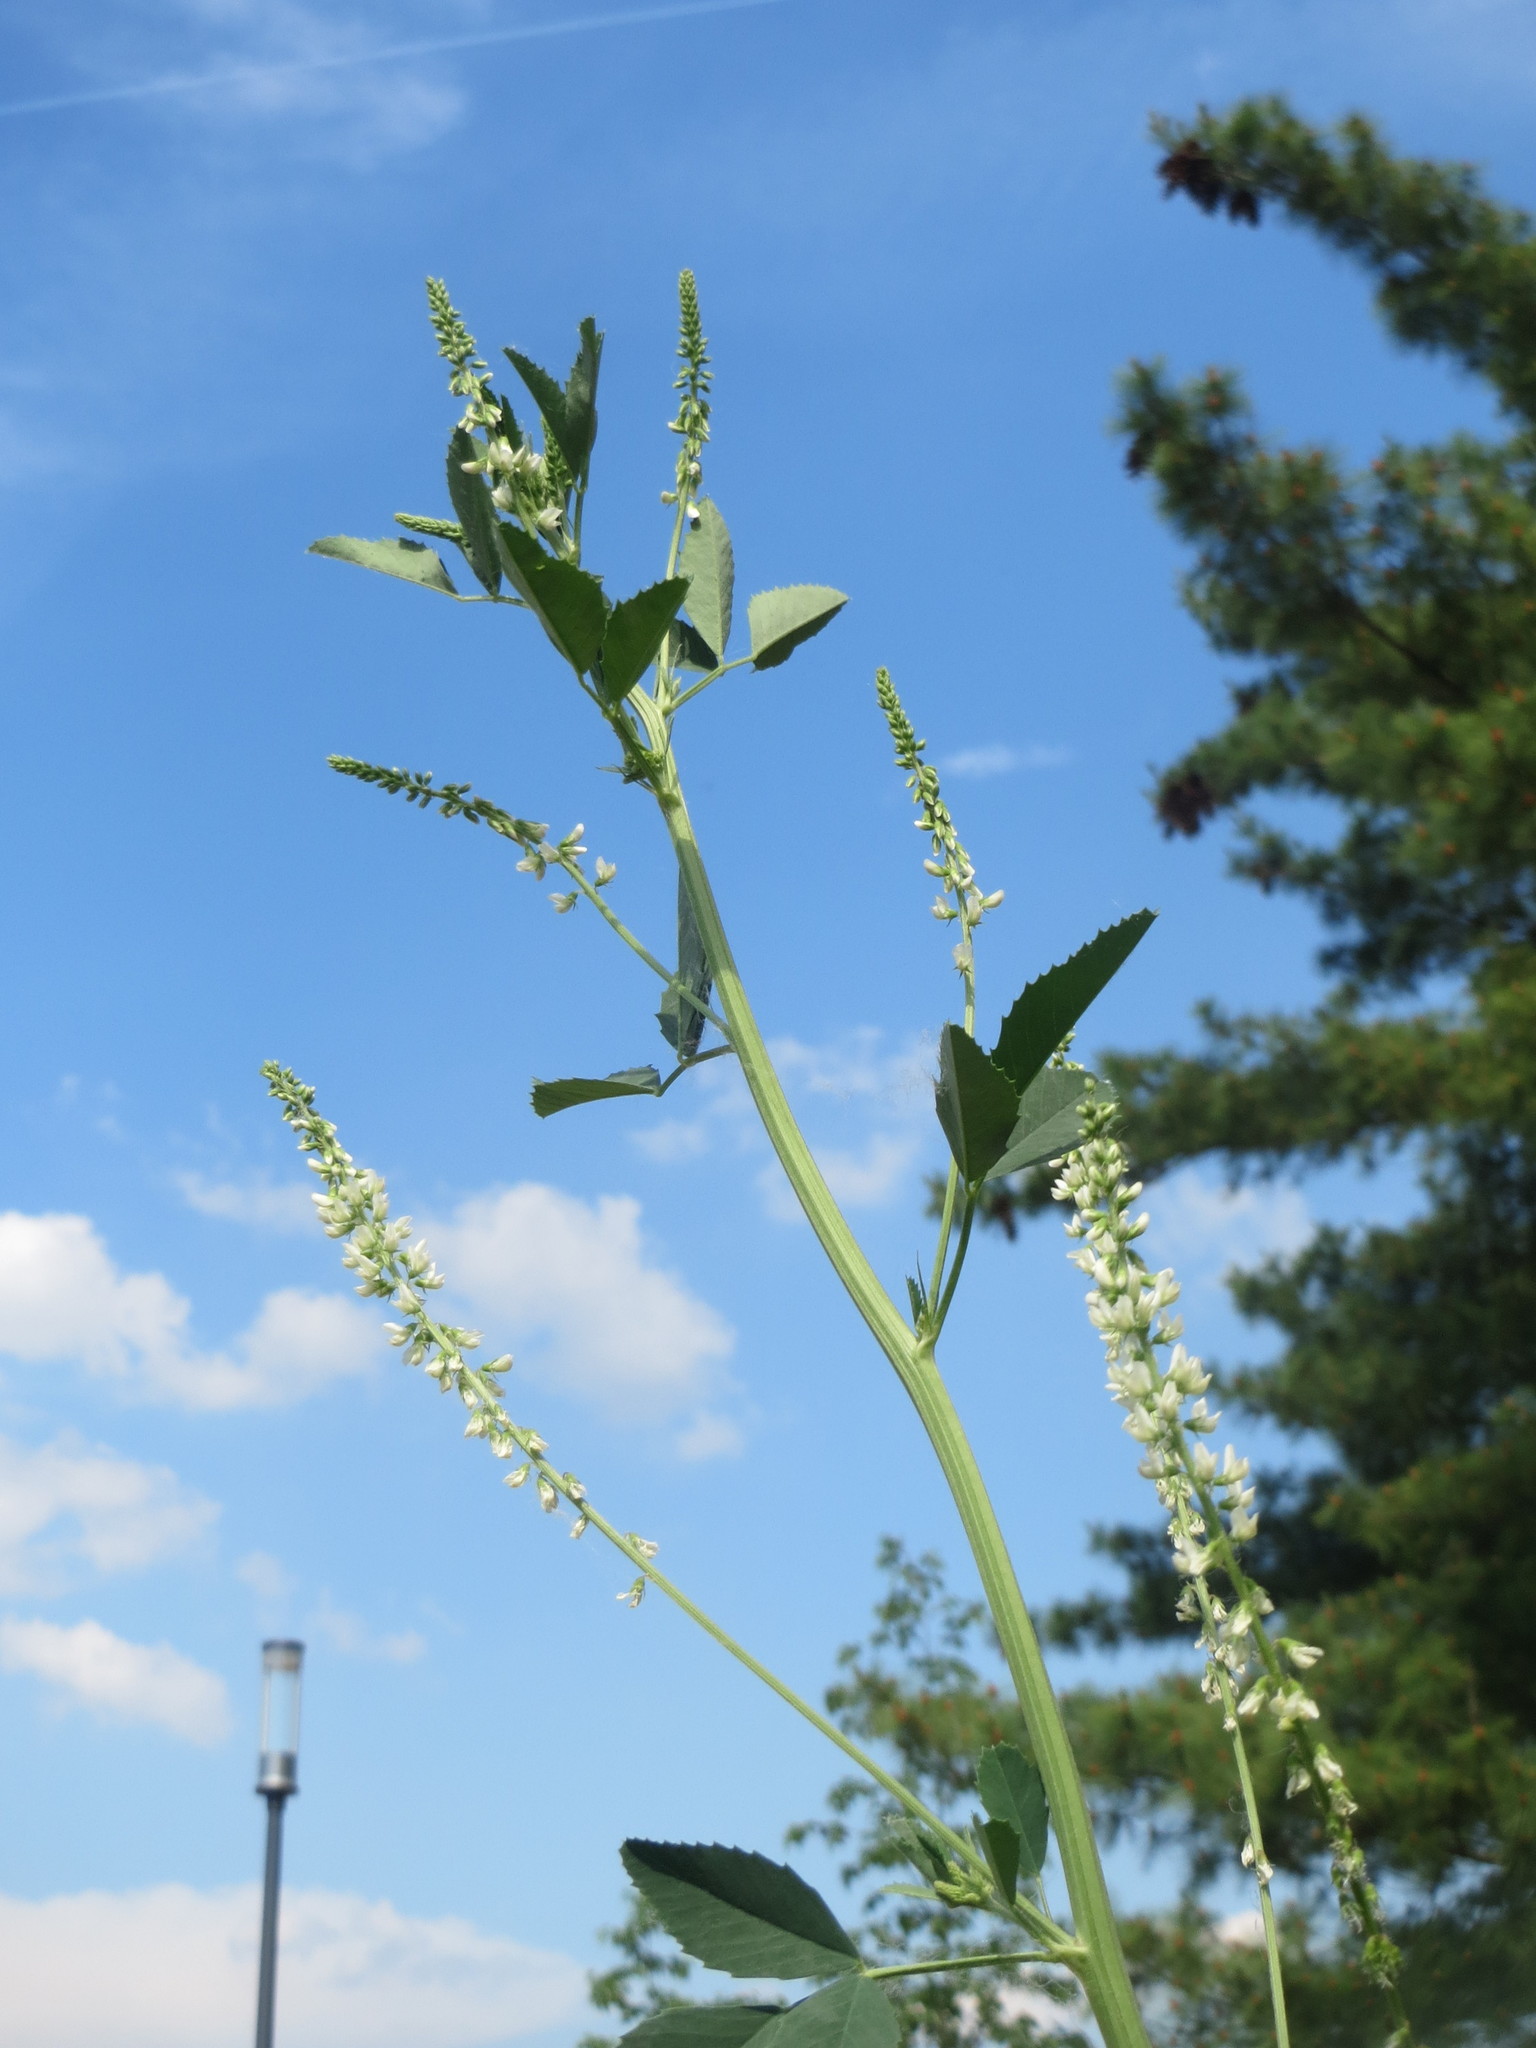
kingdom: Plantae
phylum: Tracheophyta
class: Magnoliopsida
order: Fabales
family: Fabaceae
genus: Melilotus
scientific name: Melilotus albus
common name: White melilot
